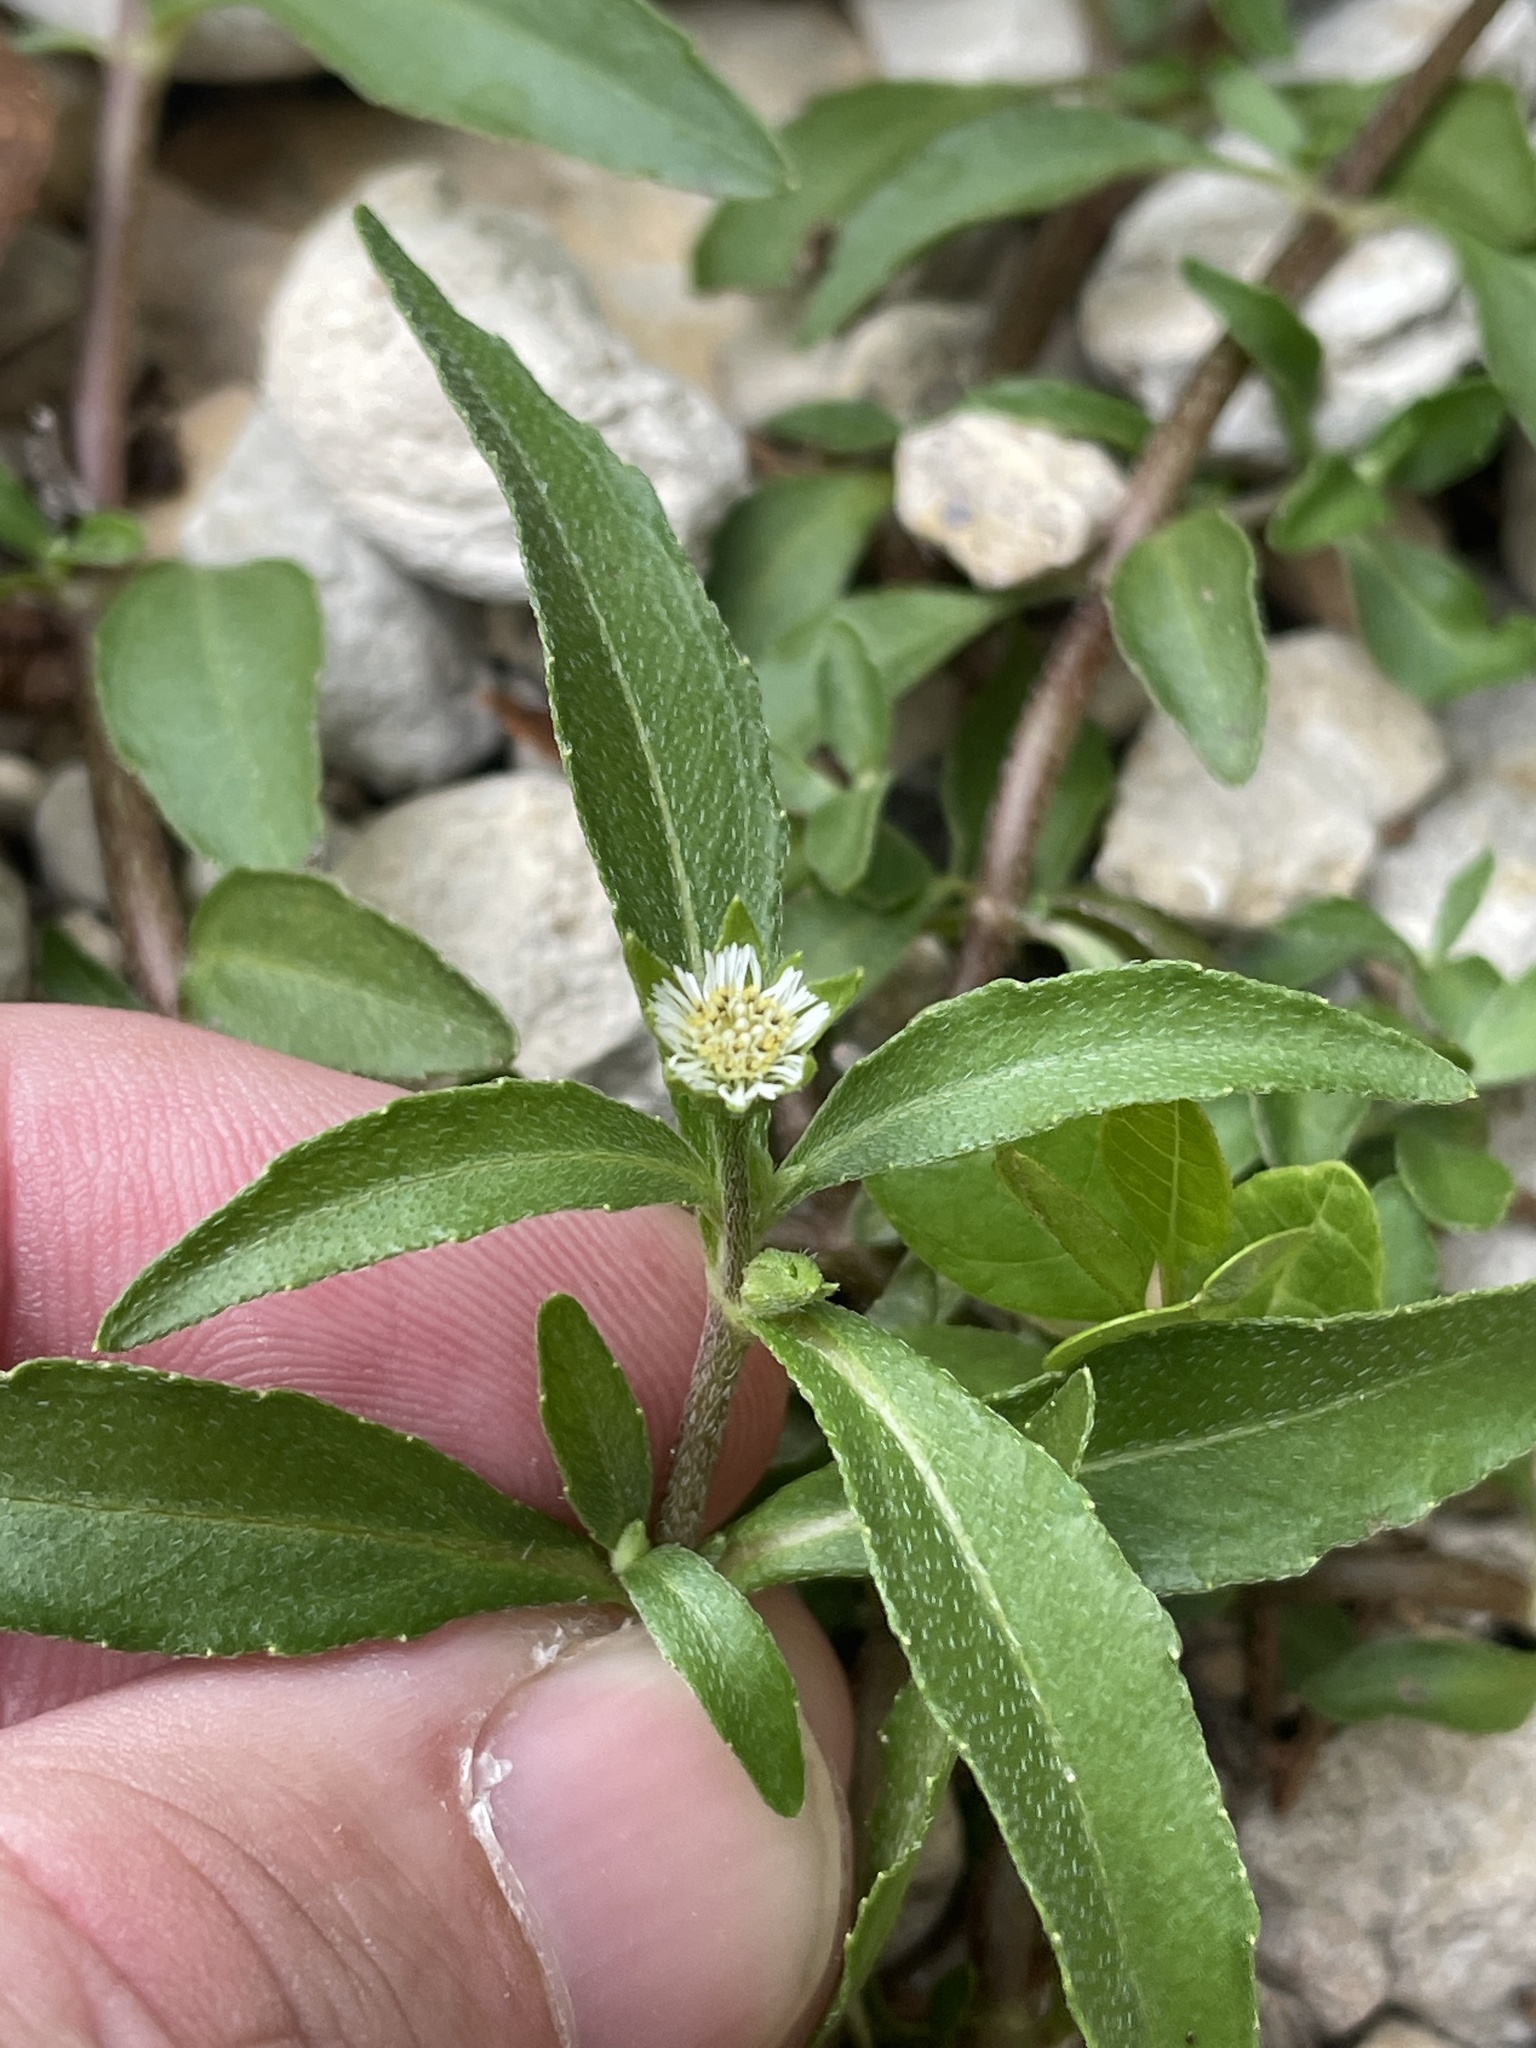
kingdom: Plantae
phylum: Tracheophyta
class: Magnoliopsida
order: Asterales
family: Asteraceae
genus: Eclipta
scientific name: Eclipta prostrata
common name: False daisy
